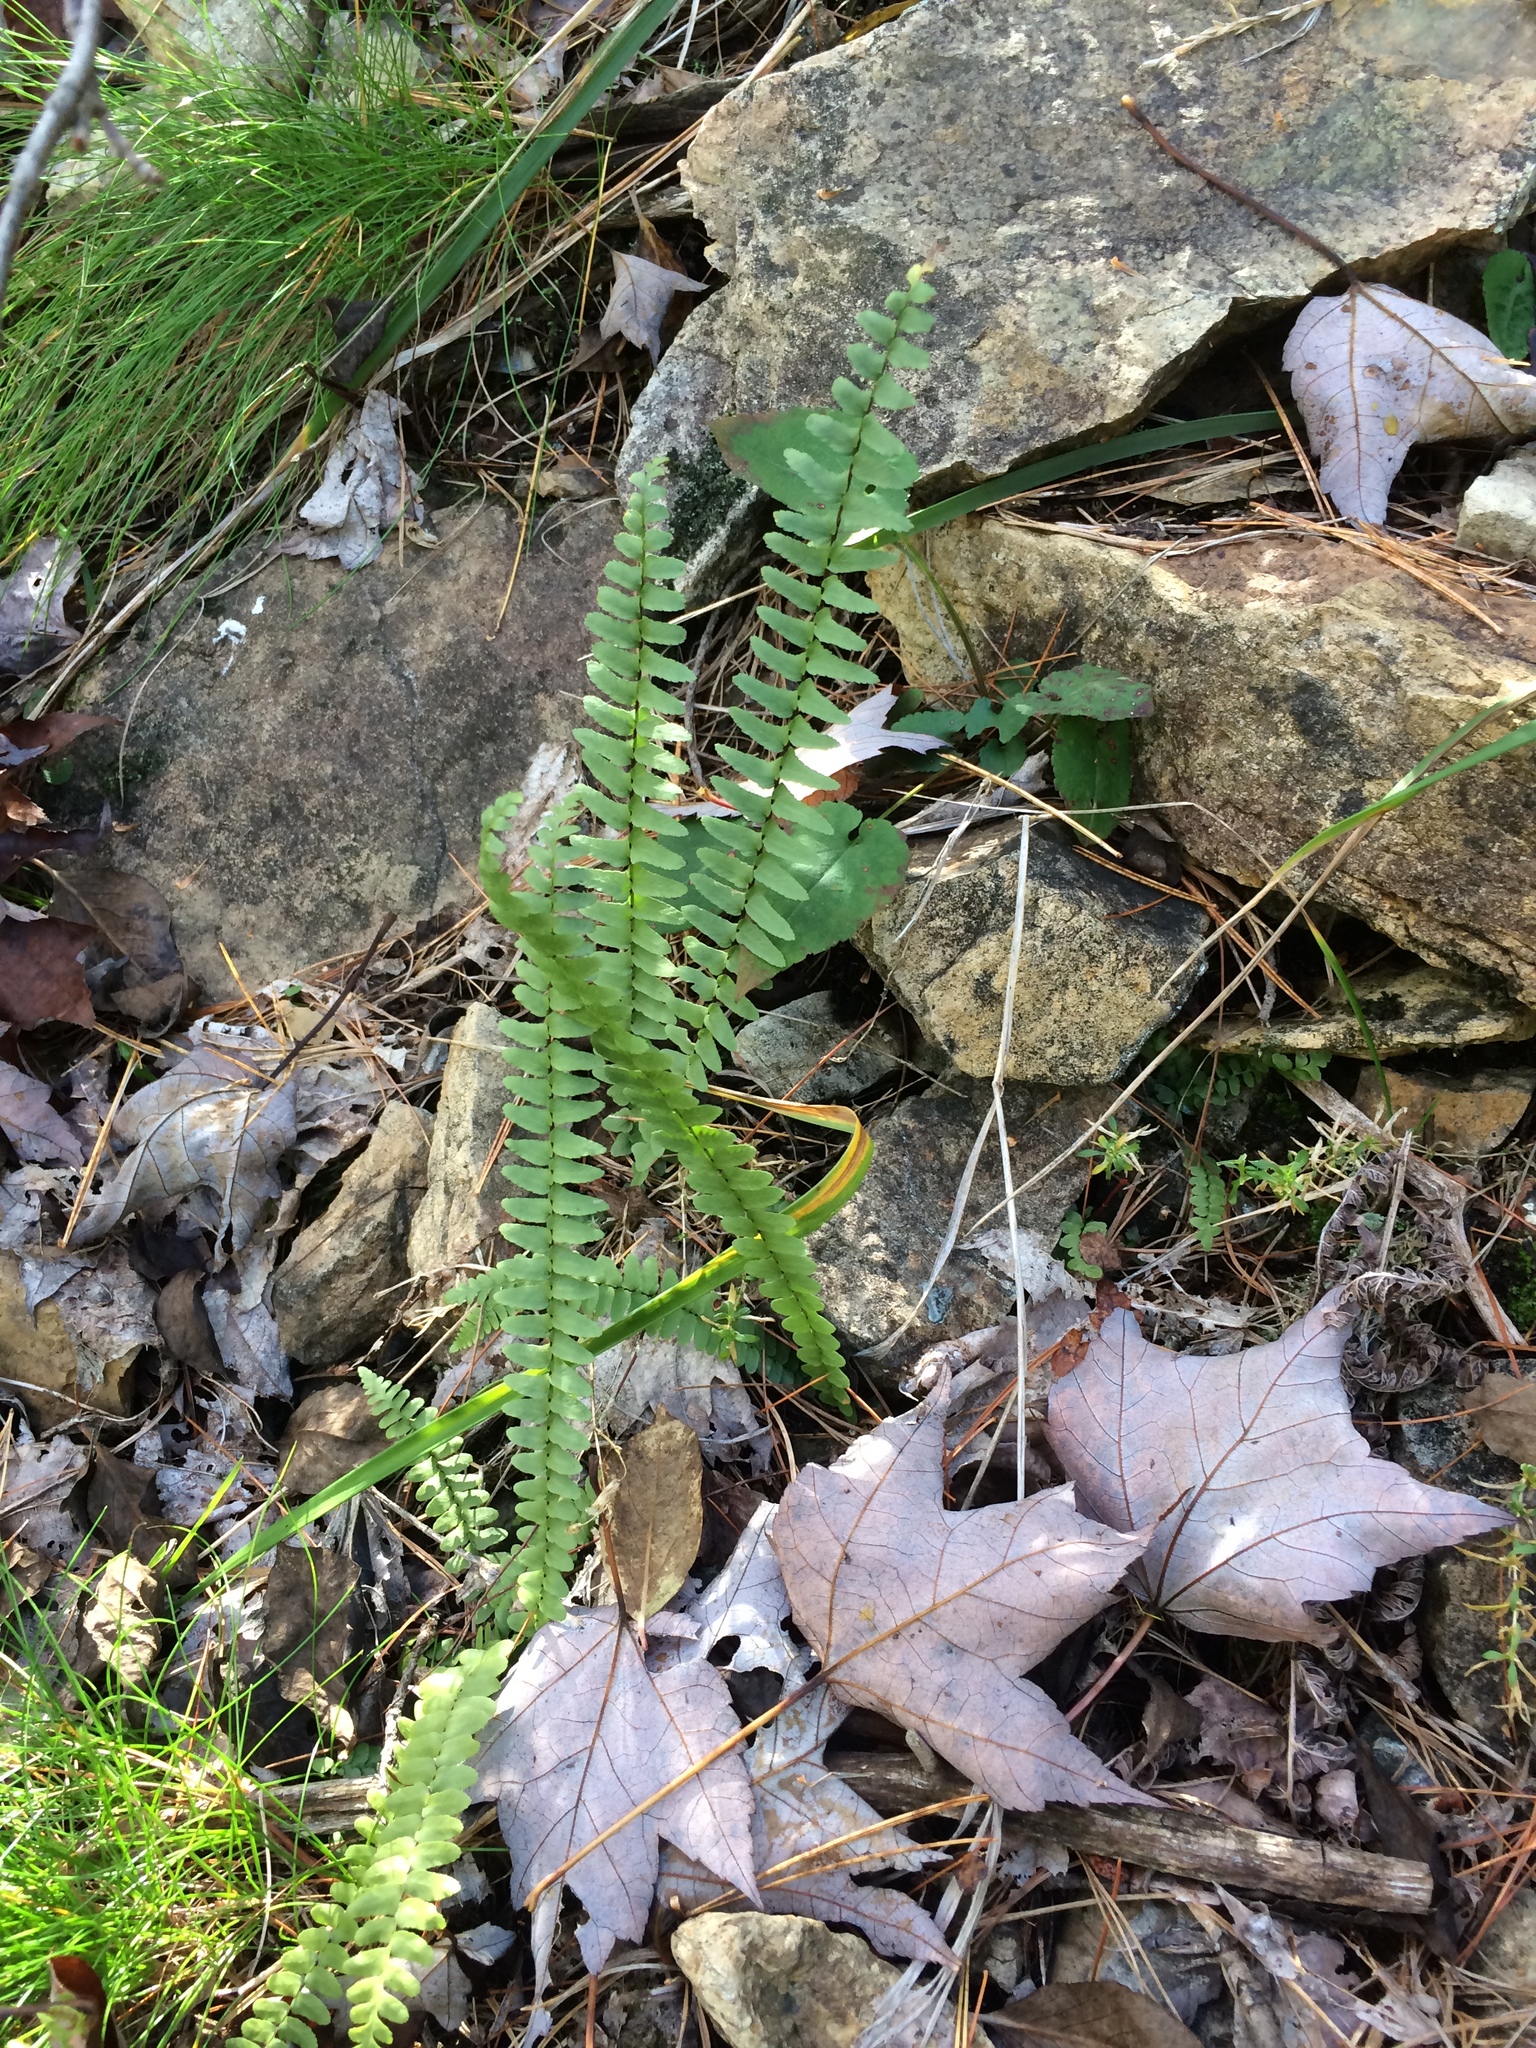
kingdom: Plantae
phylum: Tracheophyta
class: Polypodiopsida
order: Polypodiales
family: Aspleniaceae
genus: Asplenium
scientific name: Asplenium platyneuron
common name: Ebony spleenwort
